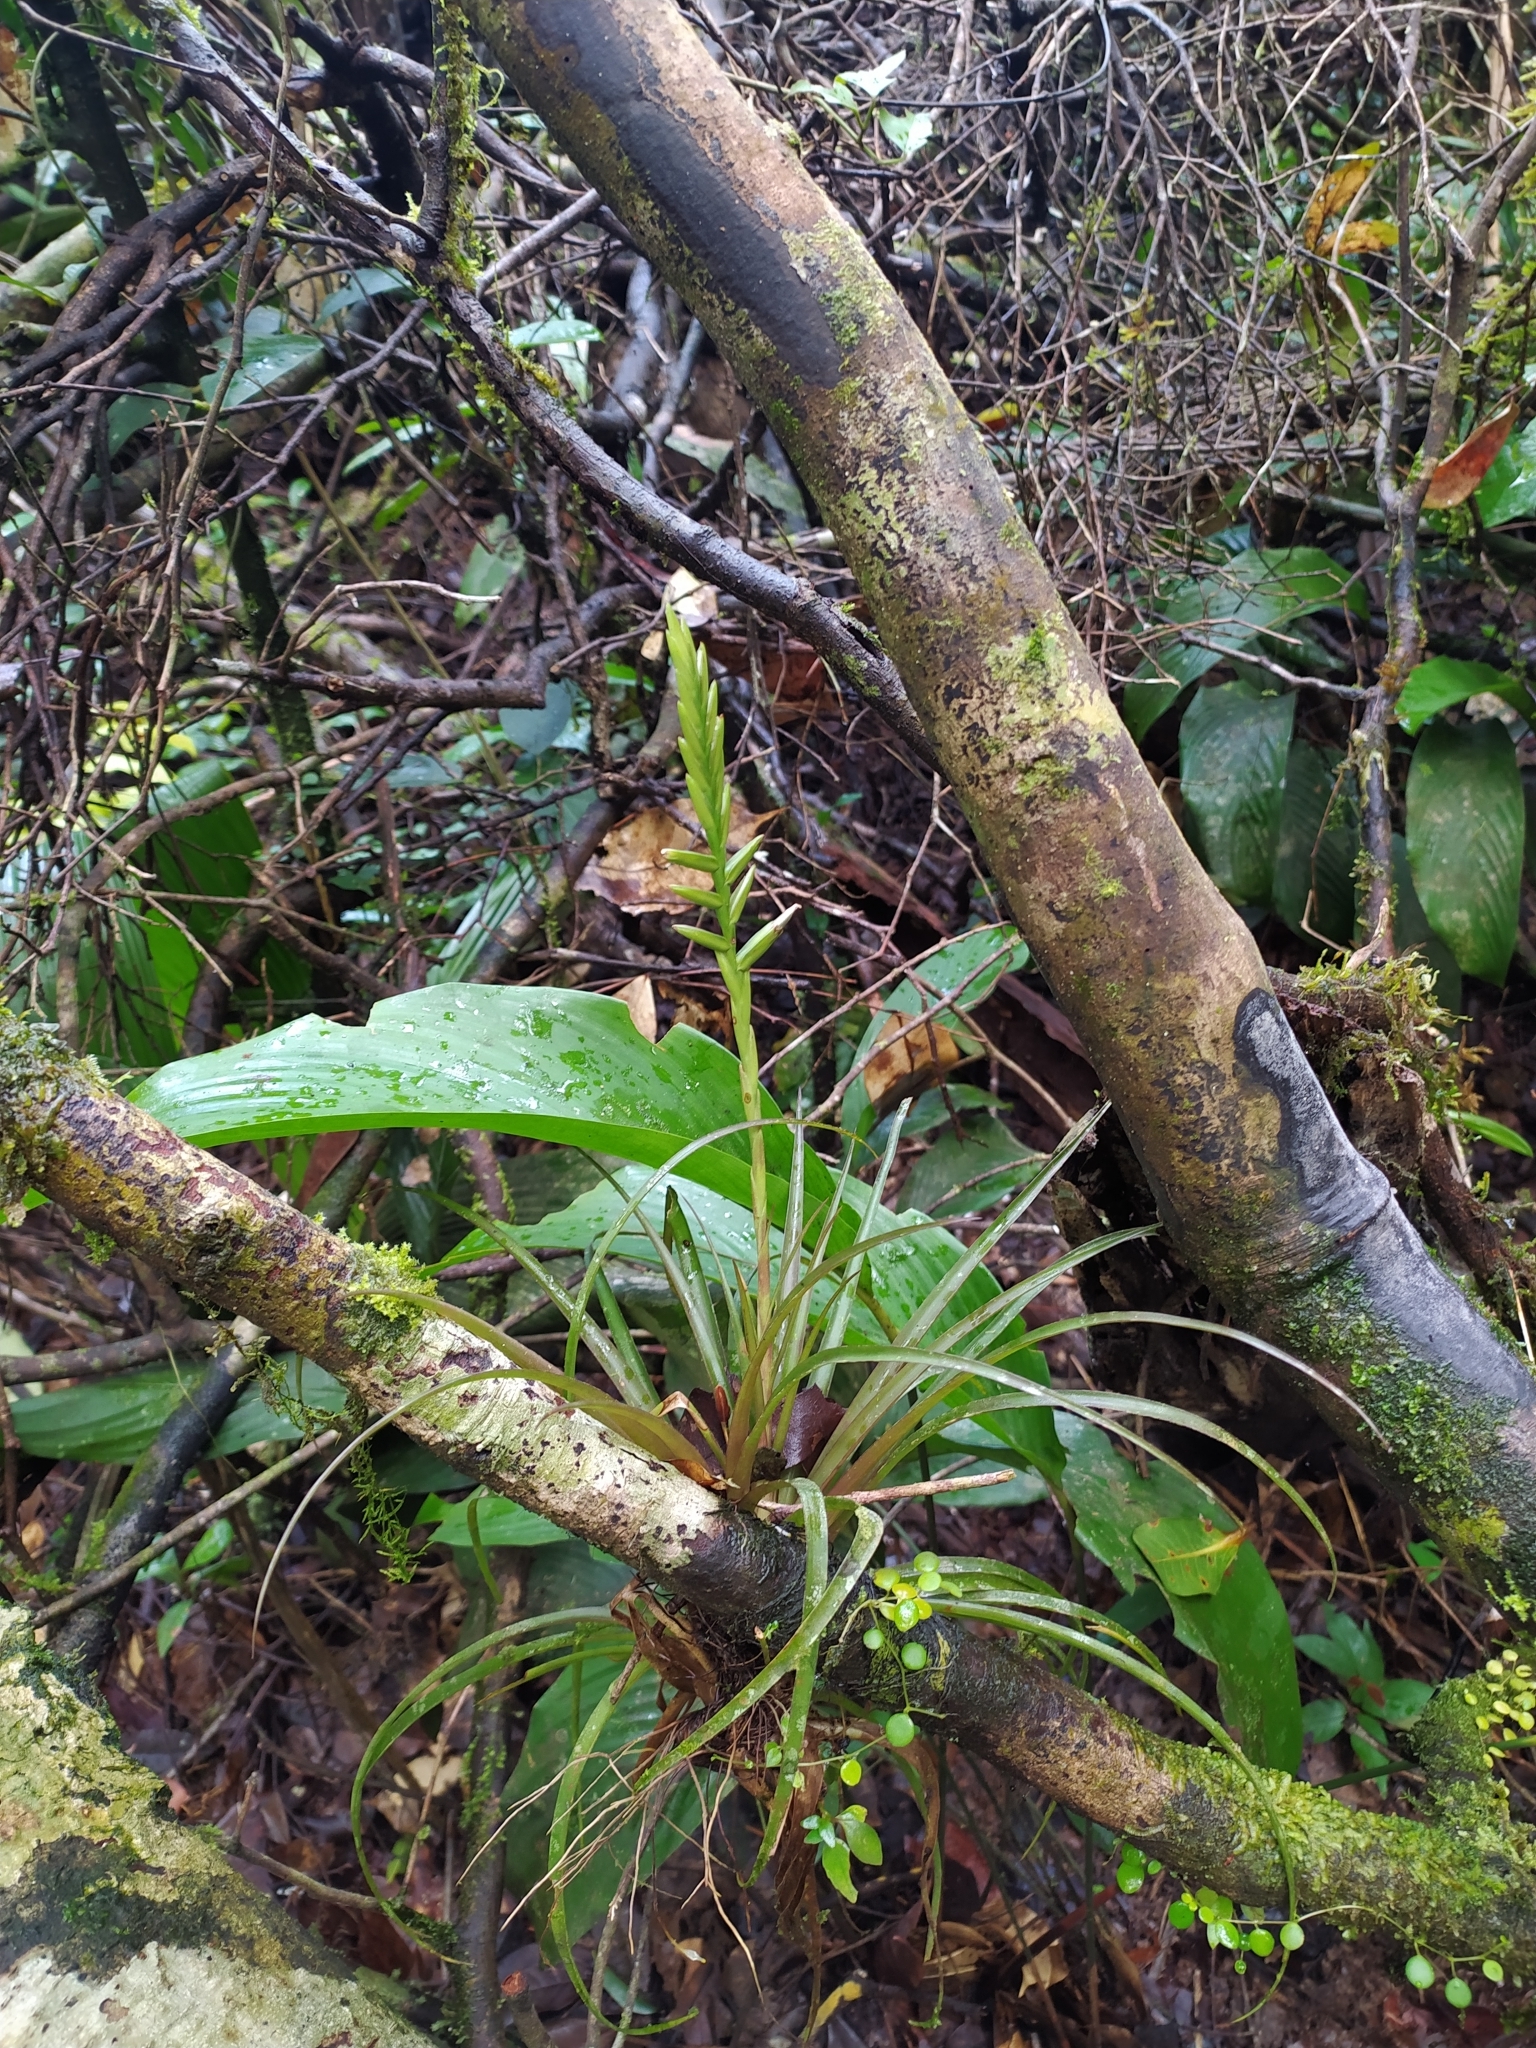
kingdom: Plantae
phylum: Tracheophyta
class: Liliopsida
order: Poales
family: Bromeliaceae
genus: Lemeltonia
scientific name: Lemeltonia monadelpha
